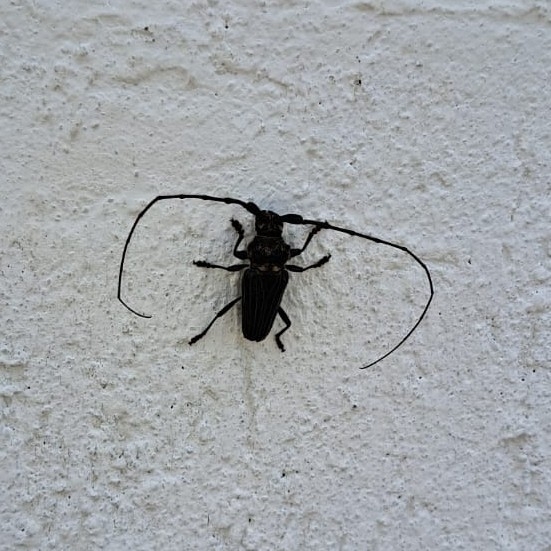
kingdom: Animalia
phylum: Arthropoda
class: Insecta
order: Coleoptera
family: Cerambycidae
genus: Retrachydes
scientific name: Retrachydes thoracicus
